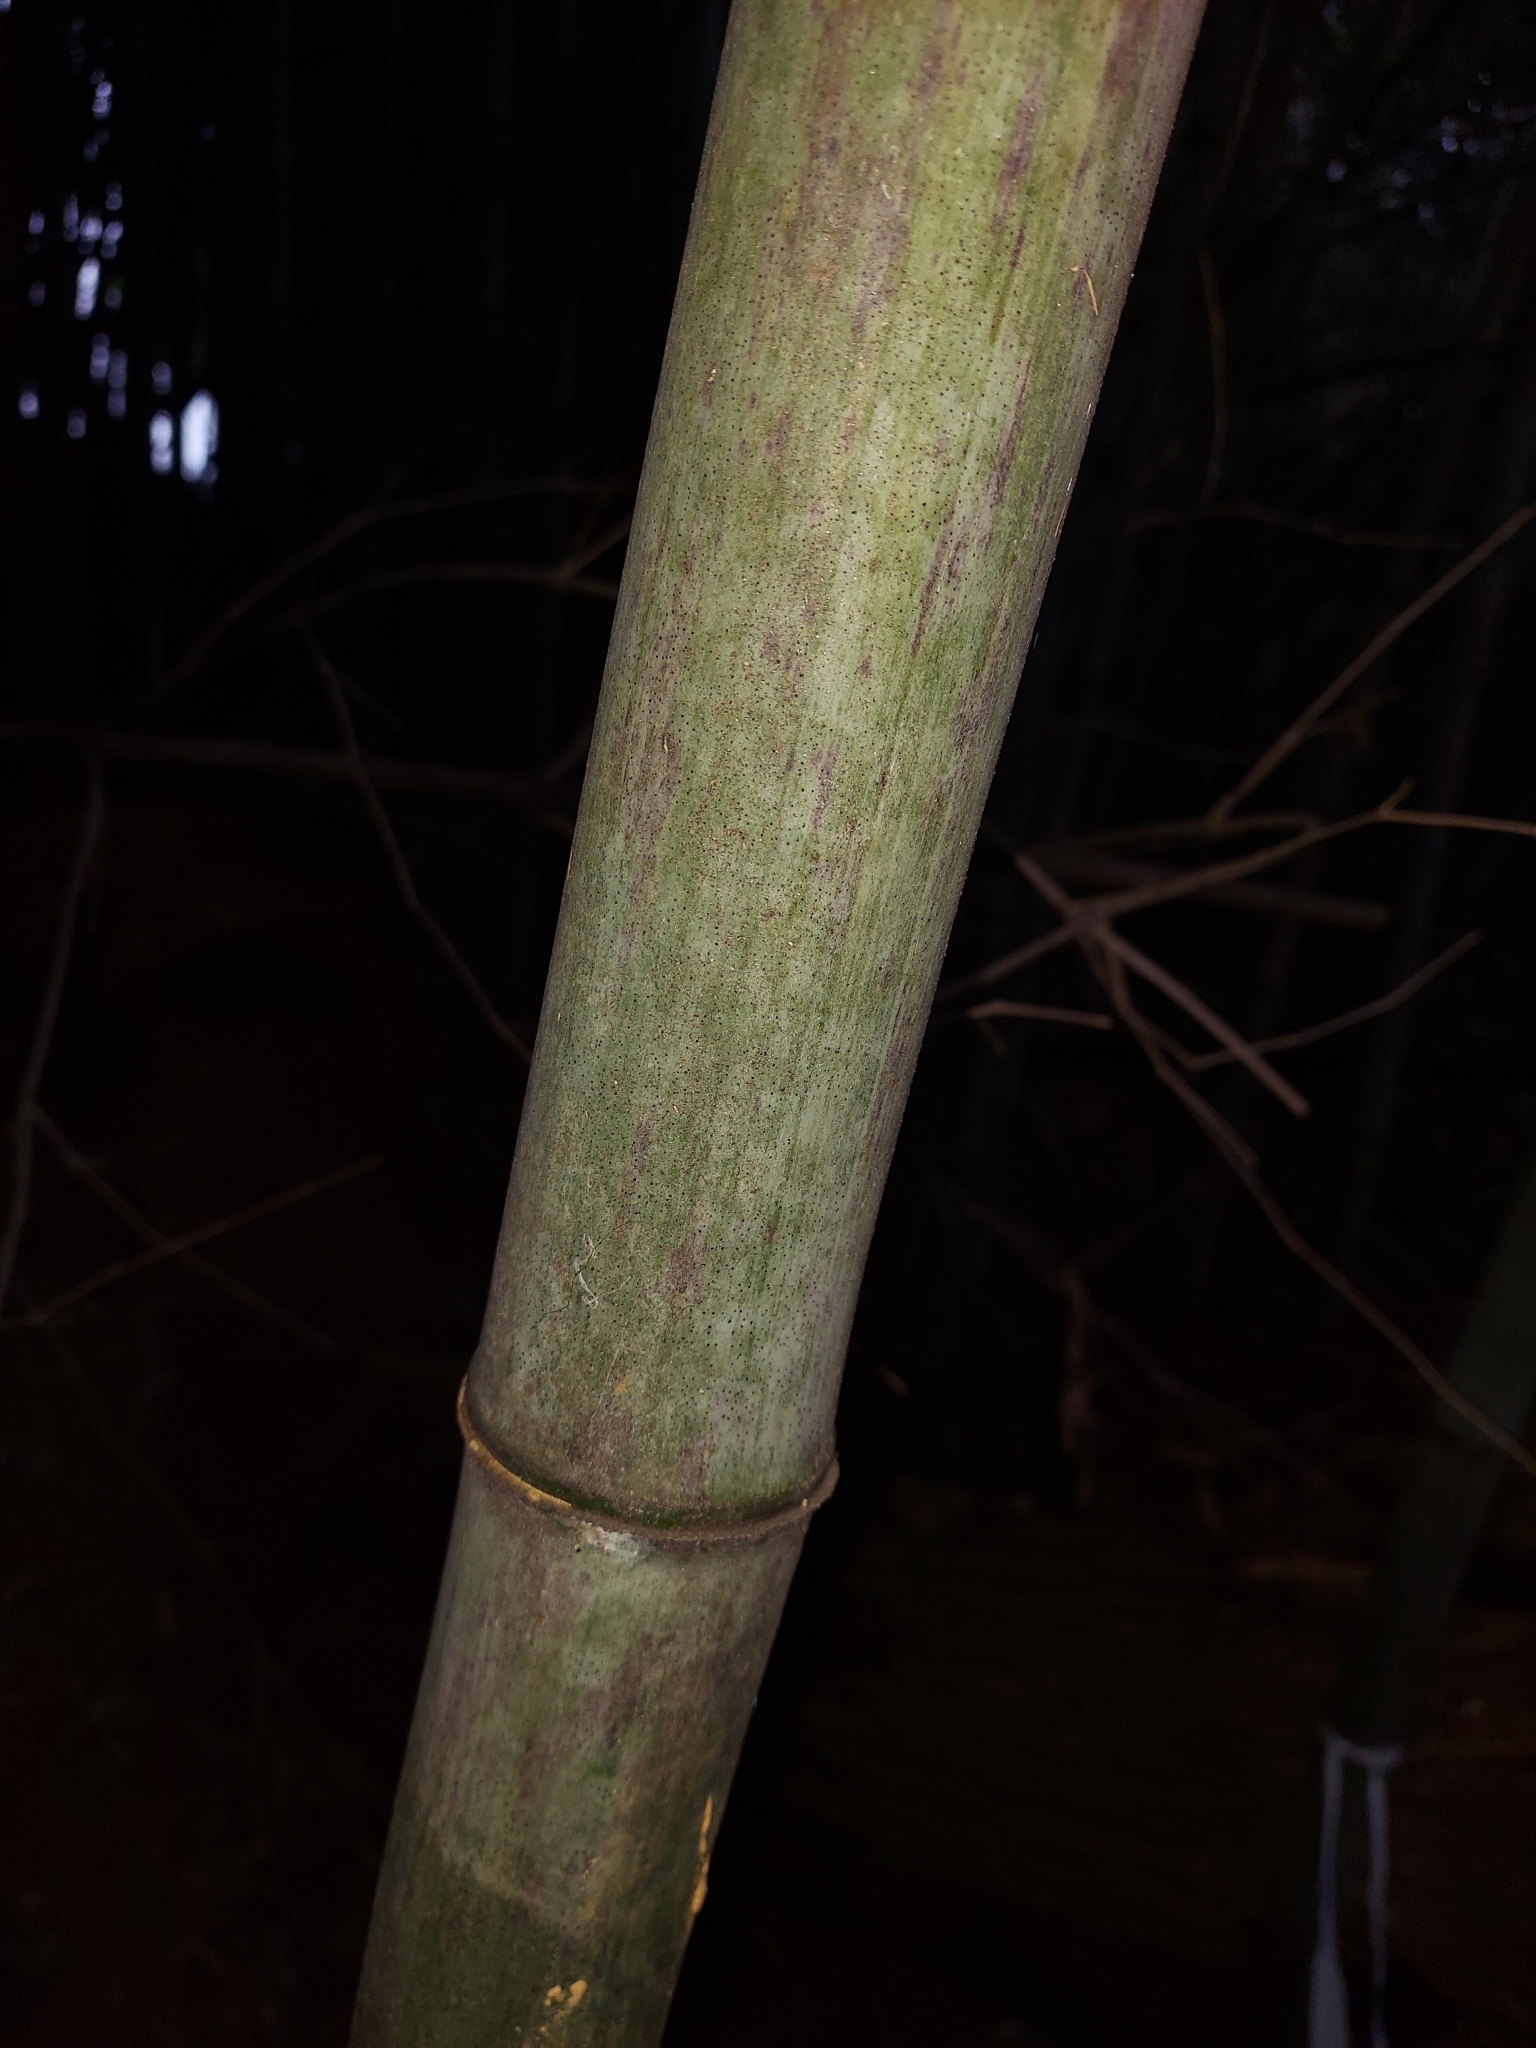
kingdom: Plantae
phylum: Tracheophyta
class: Liliopsida
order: Poales
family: Poaceae
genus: Phyllostachys
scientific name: Phyllostachys nigra
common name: Black bamboo
